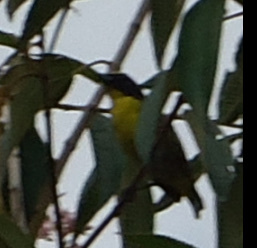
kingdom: Animalia
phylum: Chordata
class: Aves
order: Passeriformes
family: Fringillidae
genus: Euphonia
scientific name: Euphonia hirundinacea
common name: Yellow-throated euphonia
